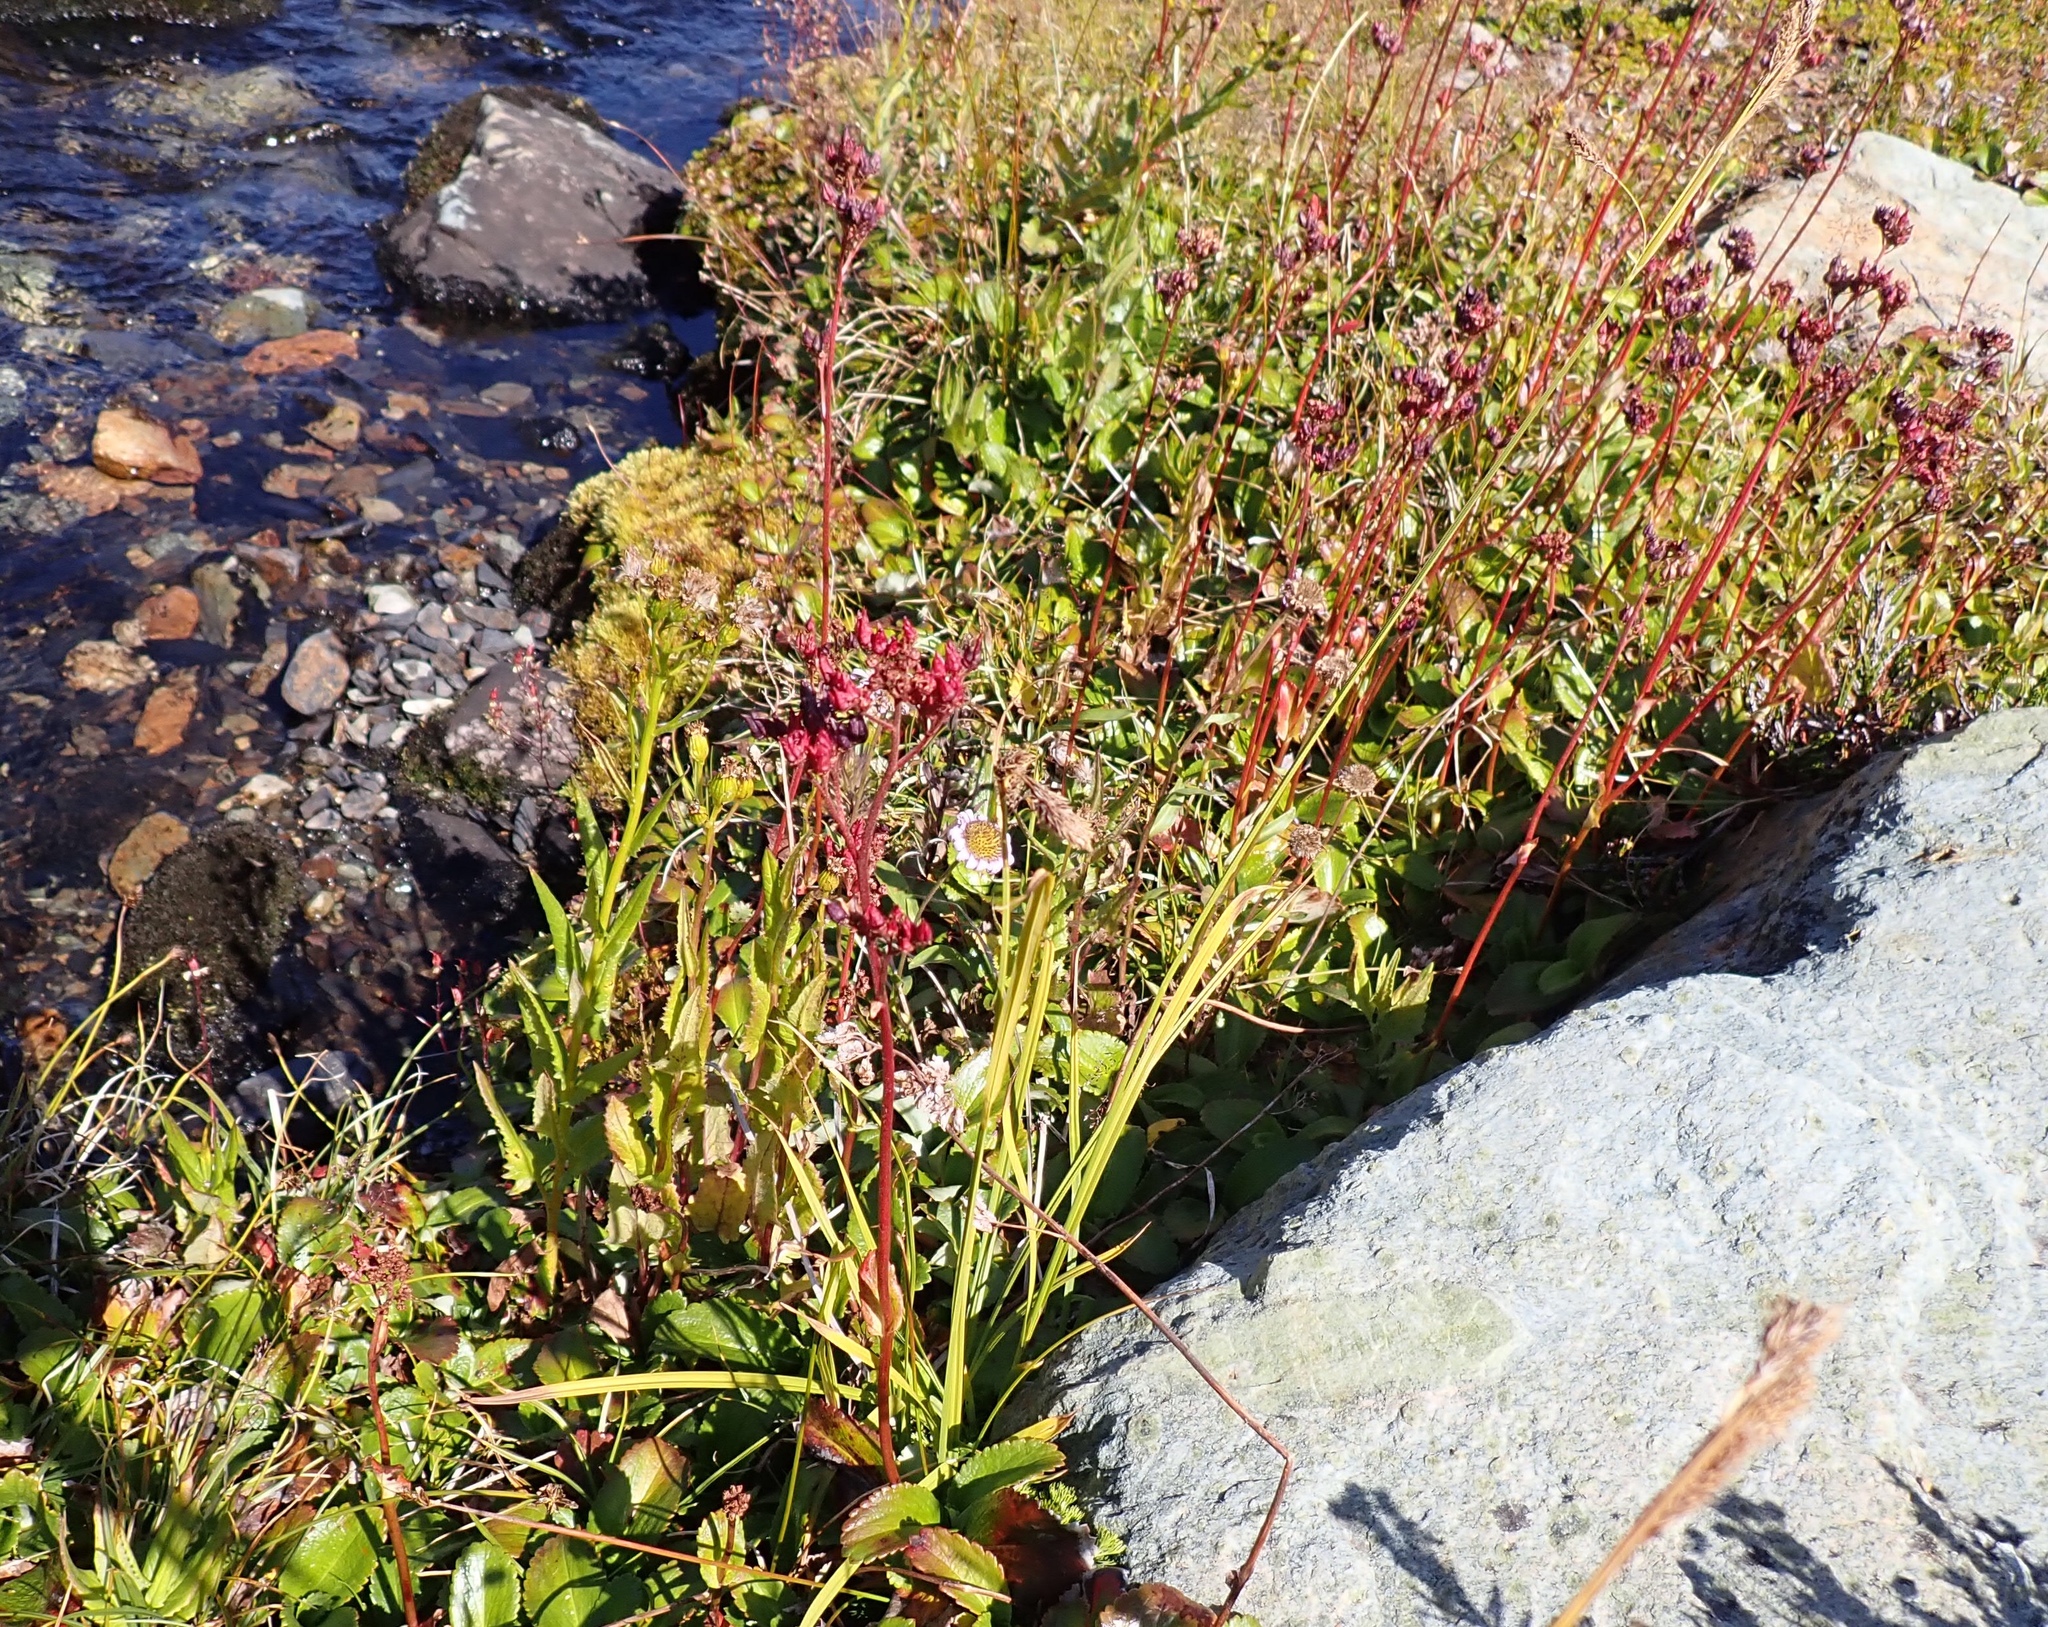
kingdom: Plantae
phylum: Tracheophyta
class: Magnoliopsida
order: Saxifragales
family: Saxifragaceae
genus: Leptarrhena
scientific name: Leptarrhena pyrolifolia
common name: Leatherleaf-saxifrage
